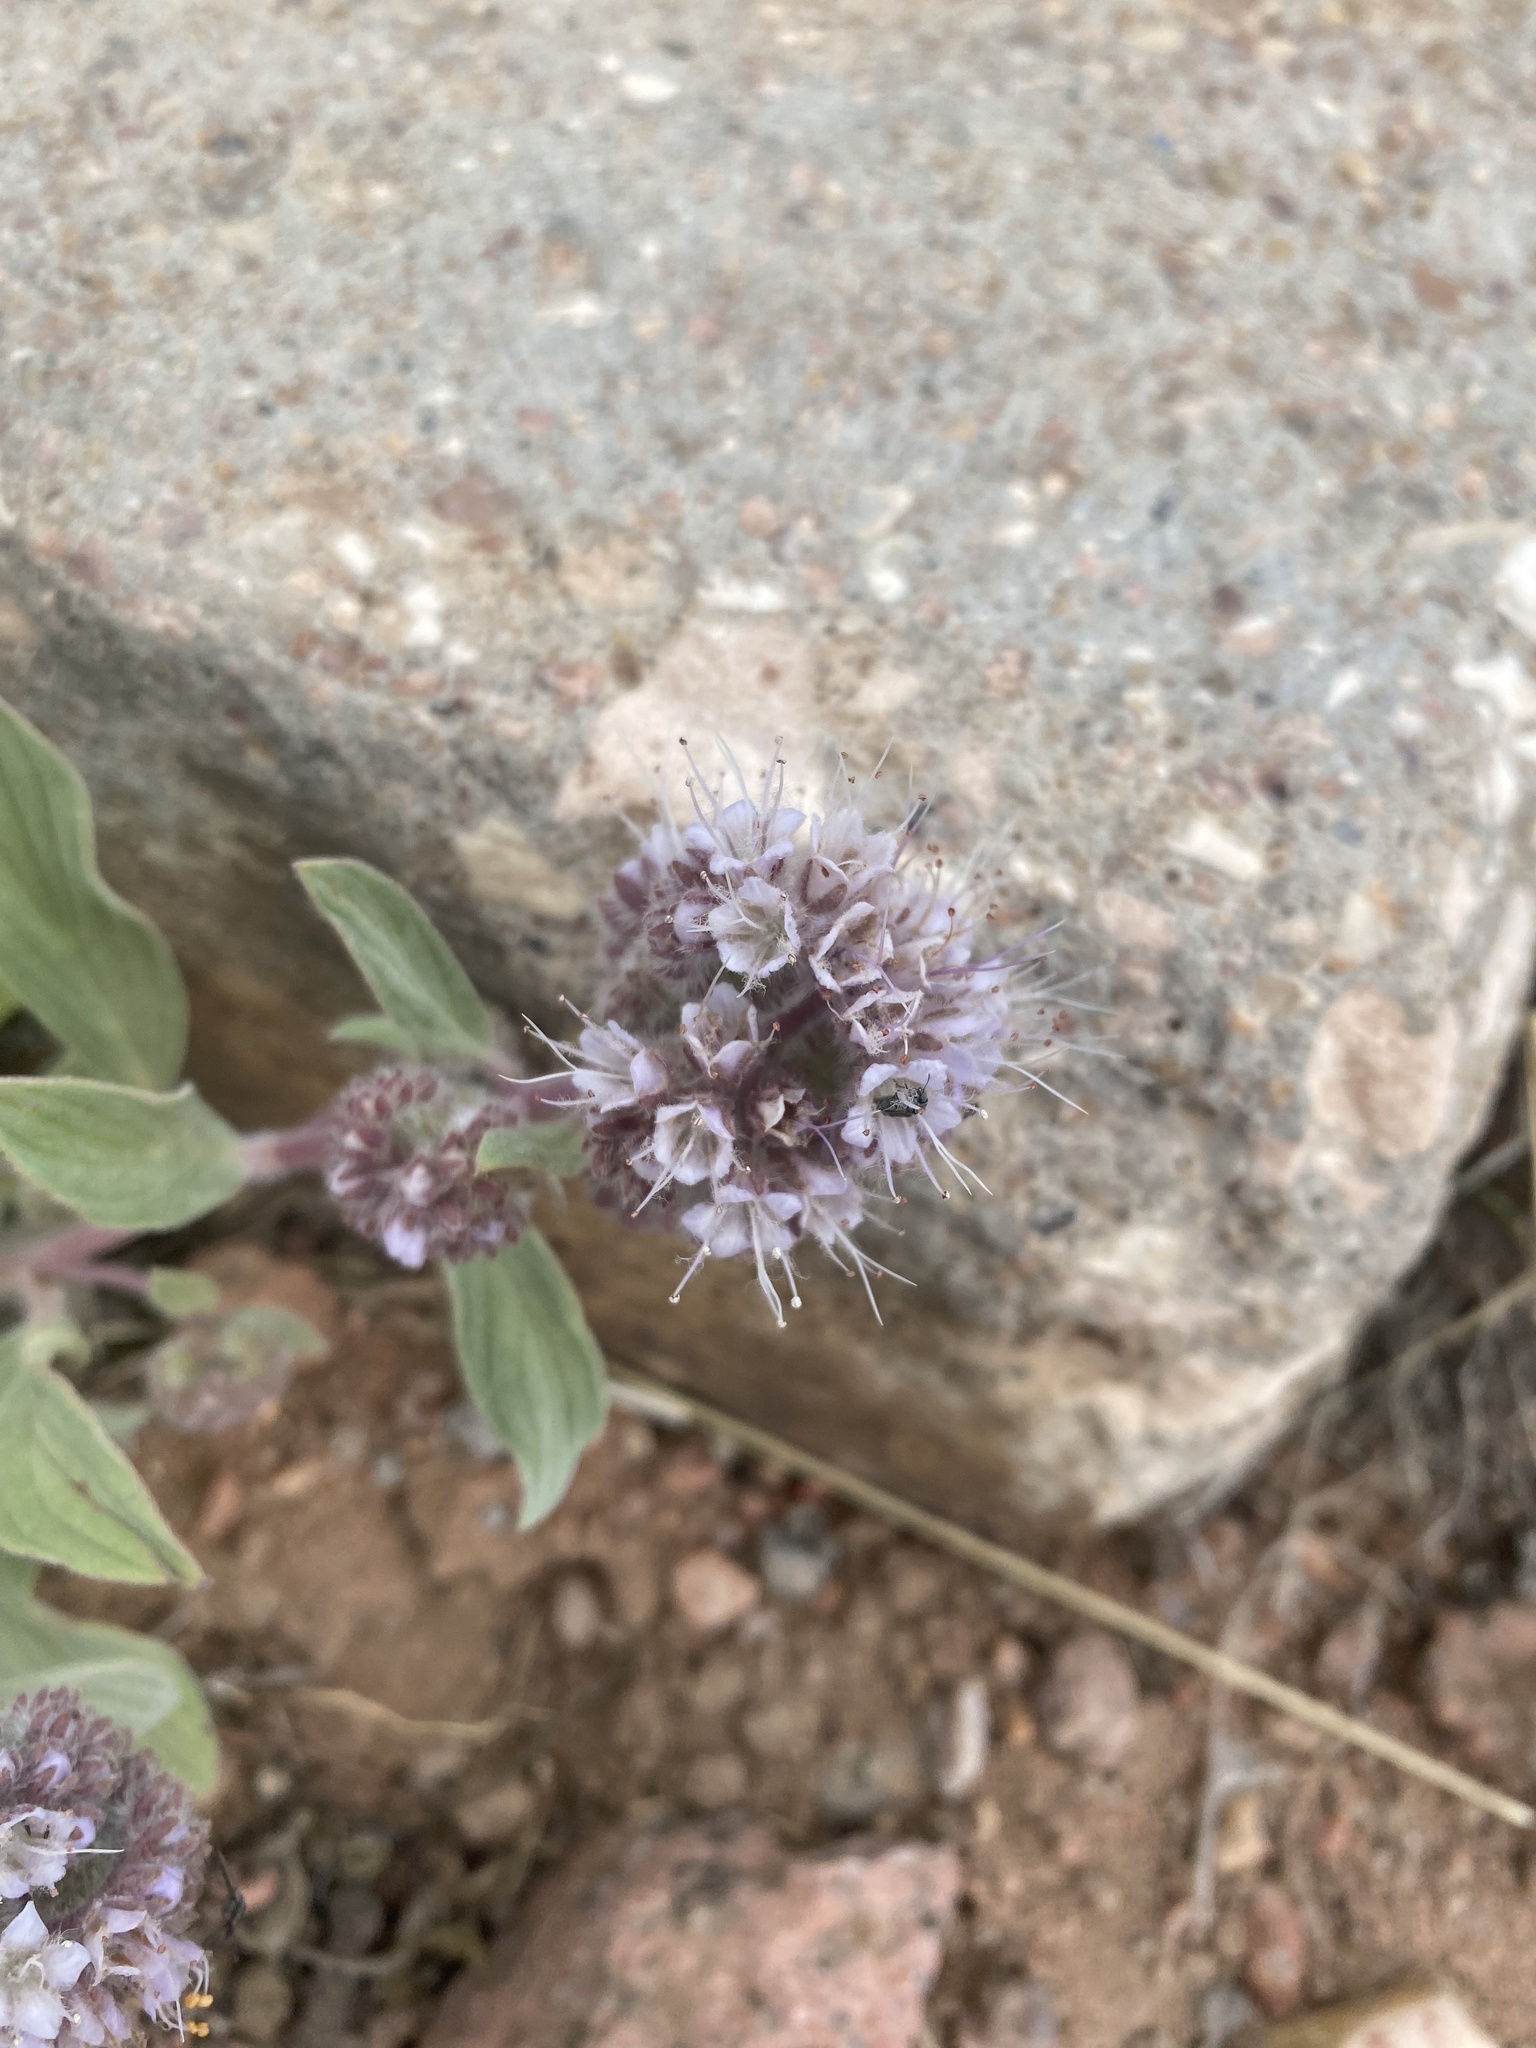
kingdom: Plantae
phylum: Tracheophyta
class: Magnoliopsida
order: Boraginales
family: Hydrophyllaceae
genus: Phacelia
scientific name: Phacelia hastata
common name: Silver-leaved phacelia
